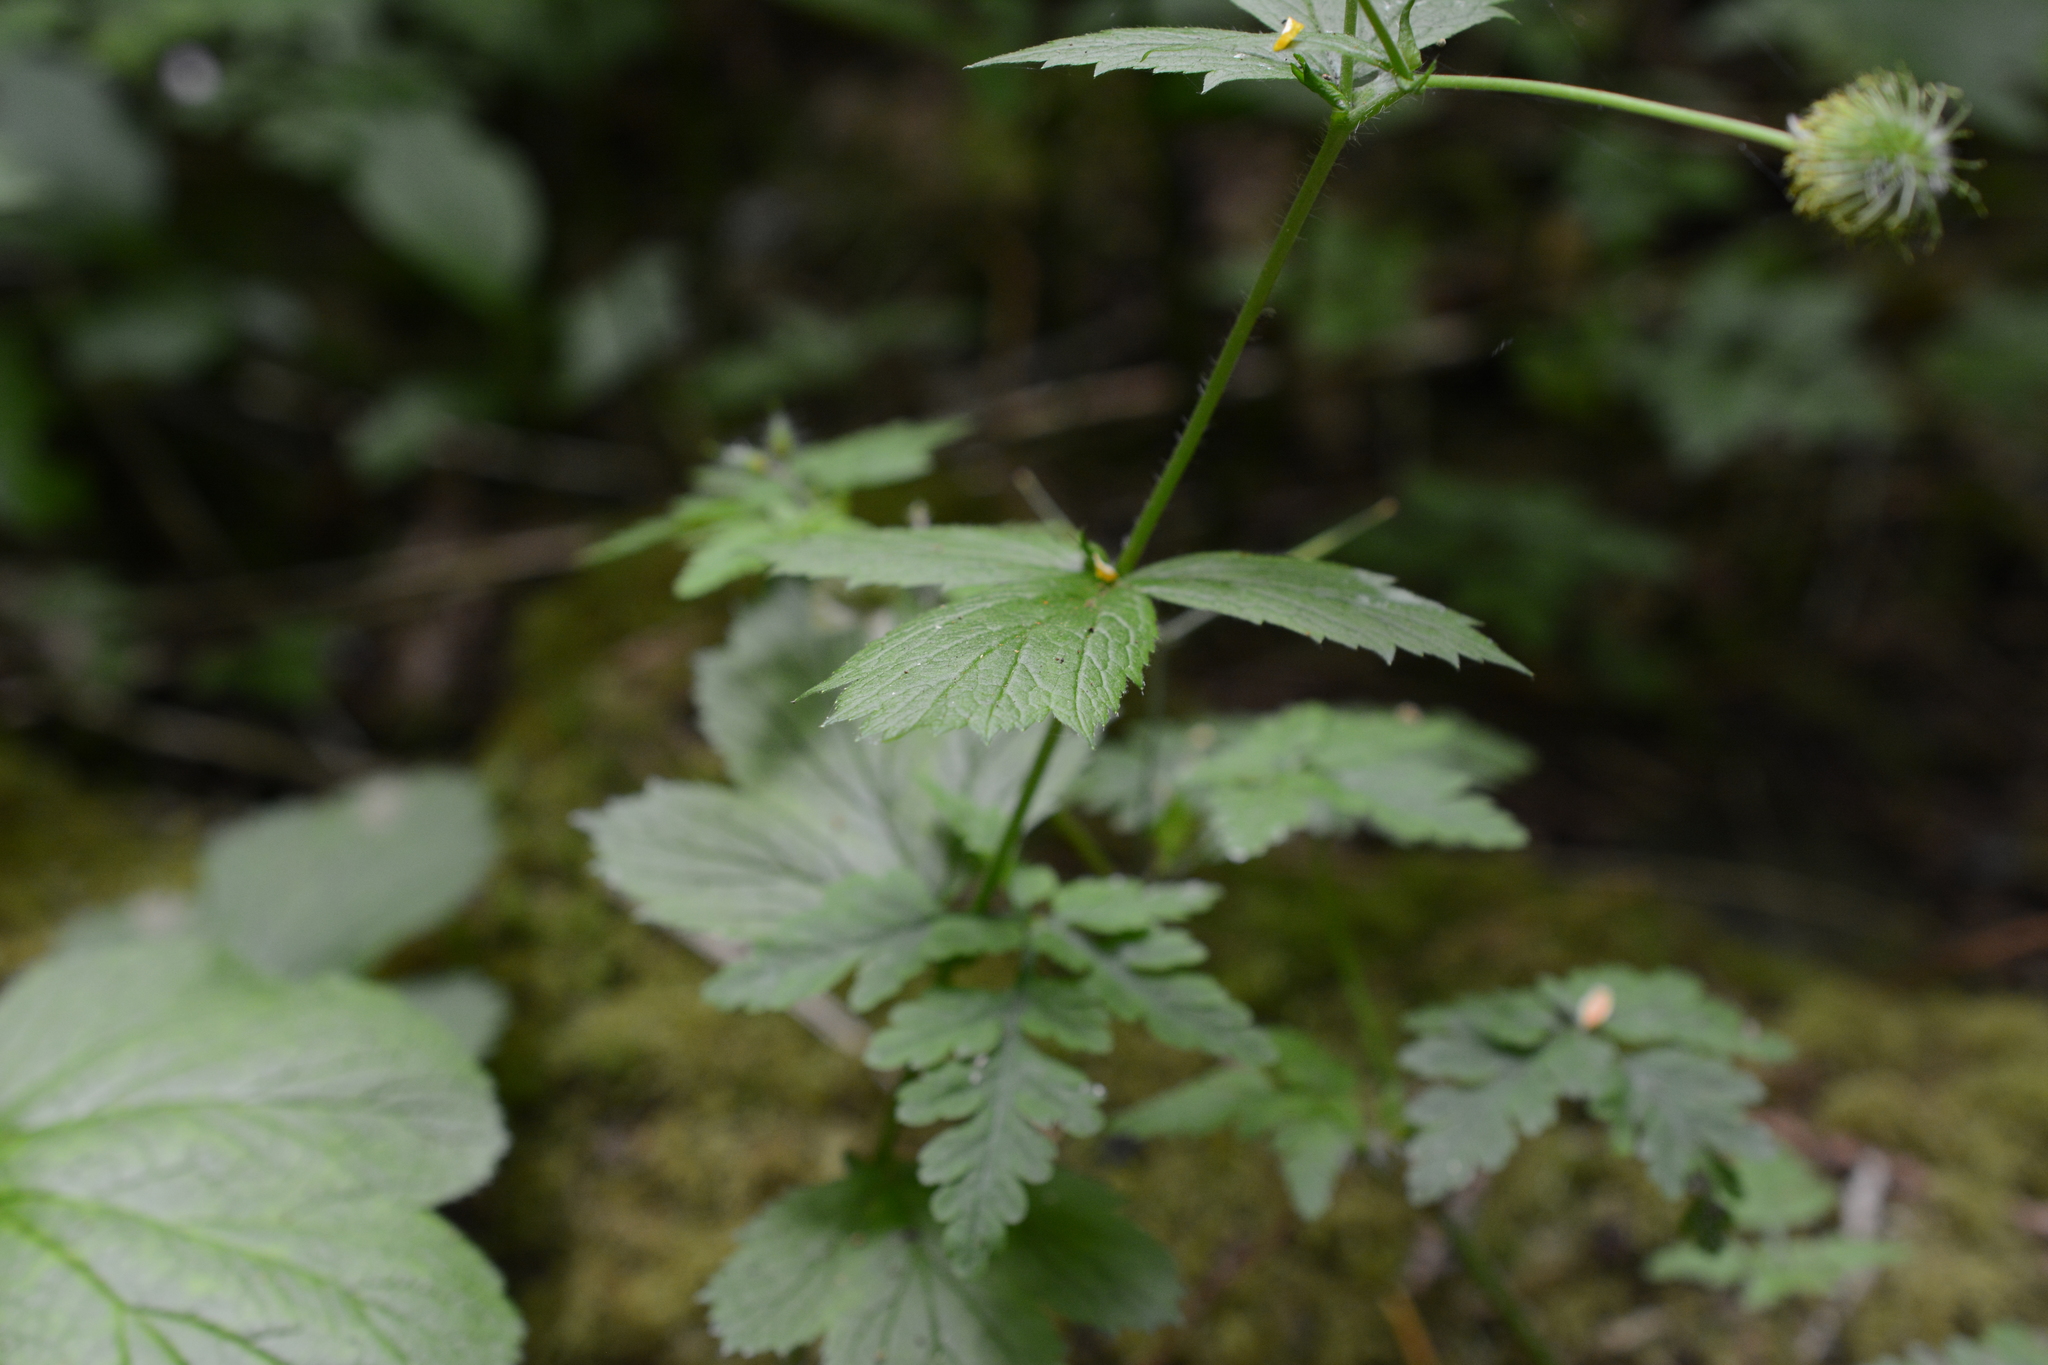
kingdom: Plantae
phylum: Tracheophyta
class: Magnoliopsida
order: Rosales
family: Rosaceae
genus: Geum
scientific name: Geum macrophyllum
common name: Large-leaved avens
